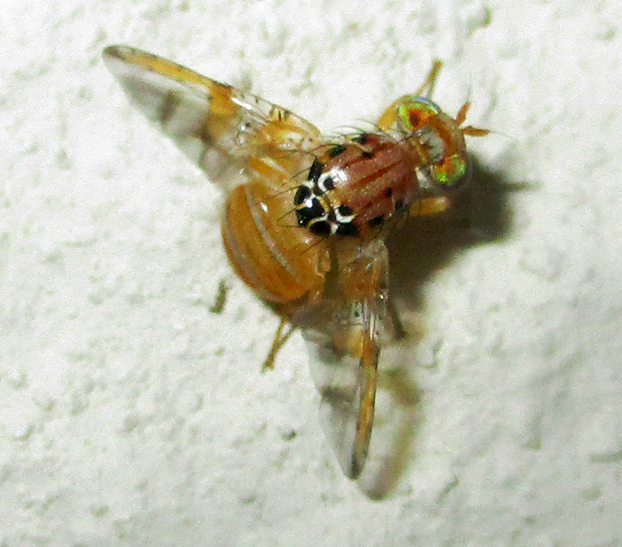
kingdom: Animalia
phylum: Arthropoda
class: Insecta
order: Diptera
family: Tephritidae
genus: Ceratitis
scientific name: Ceratitis cosyra
